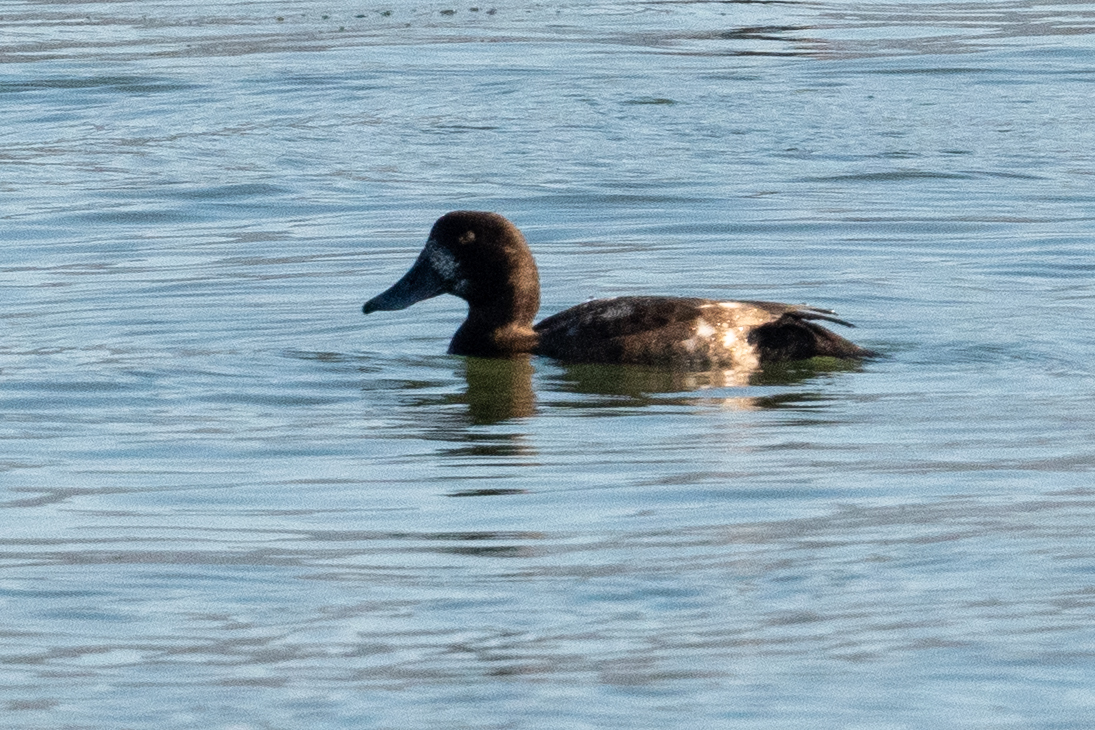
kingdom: Animalia
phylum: Chordata
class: Aves
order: Anseriformes
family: Anatidae
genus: Aythya
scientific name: Aythya marila
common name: Greater scaup
